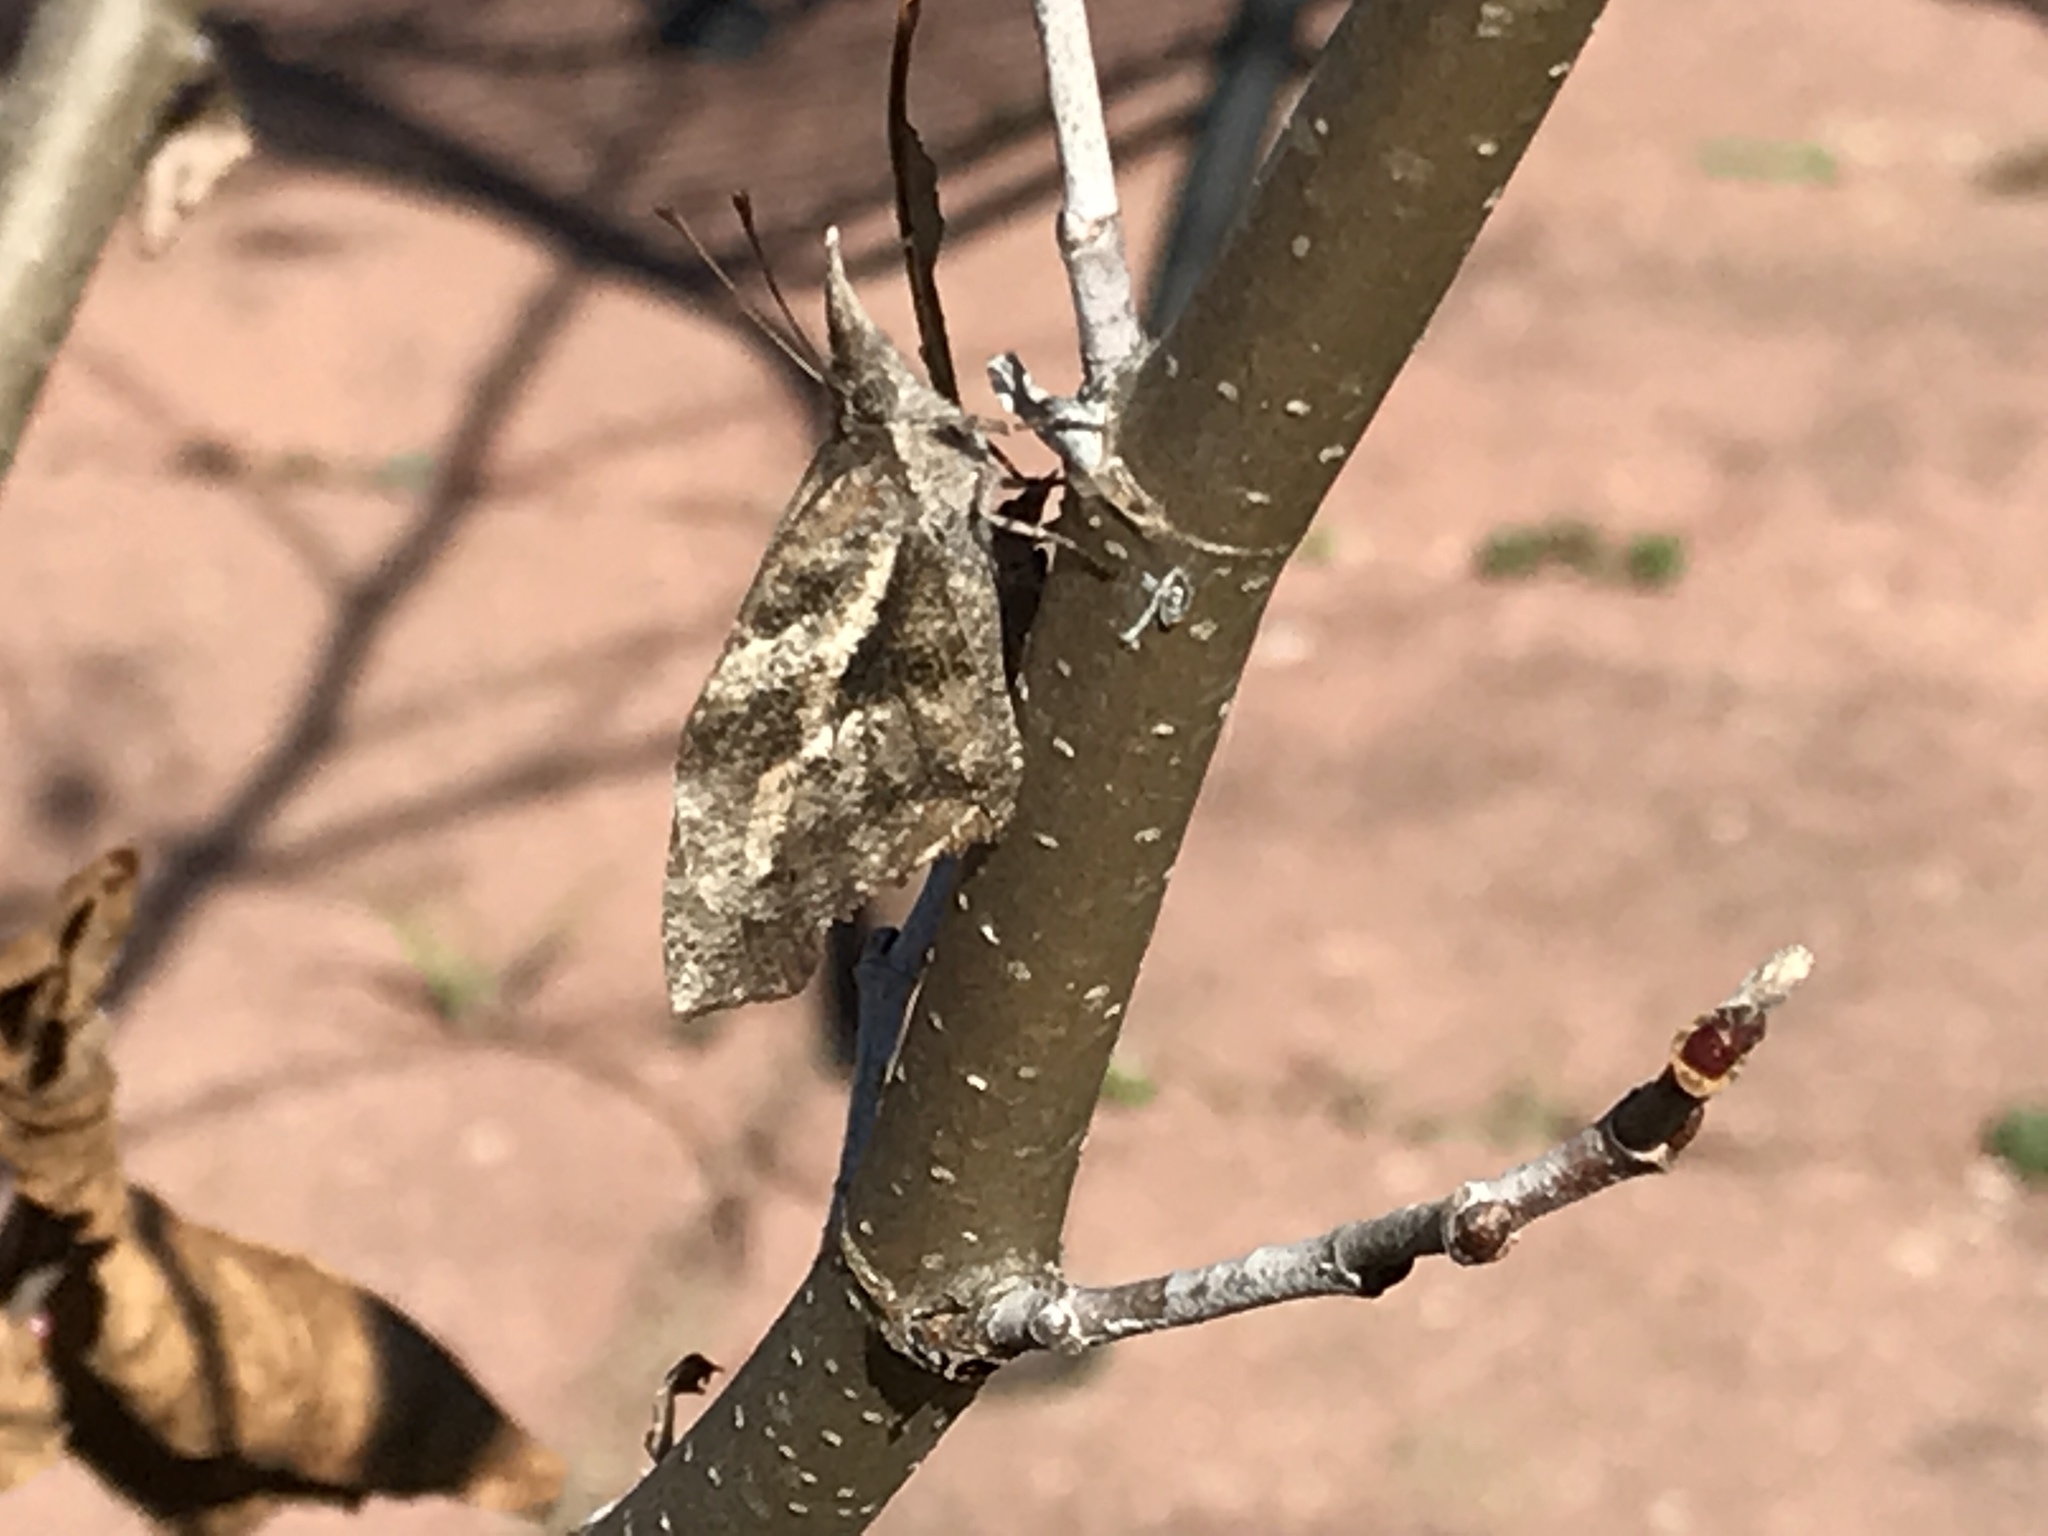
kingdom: Animalia
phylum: Arthropoda
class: Insecta
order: Lepidoptera
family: Nymphalidae
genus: Libytheana
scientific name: Libytheana carinenta
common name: American snout
